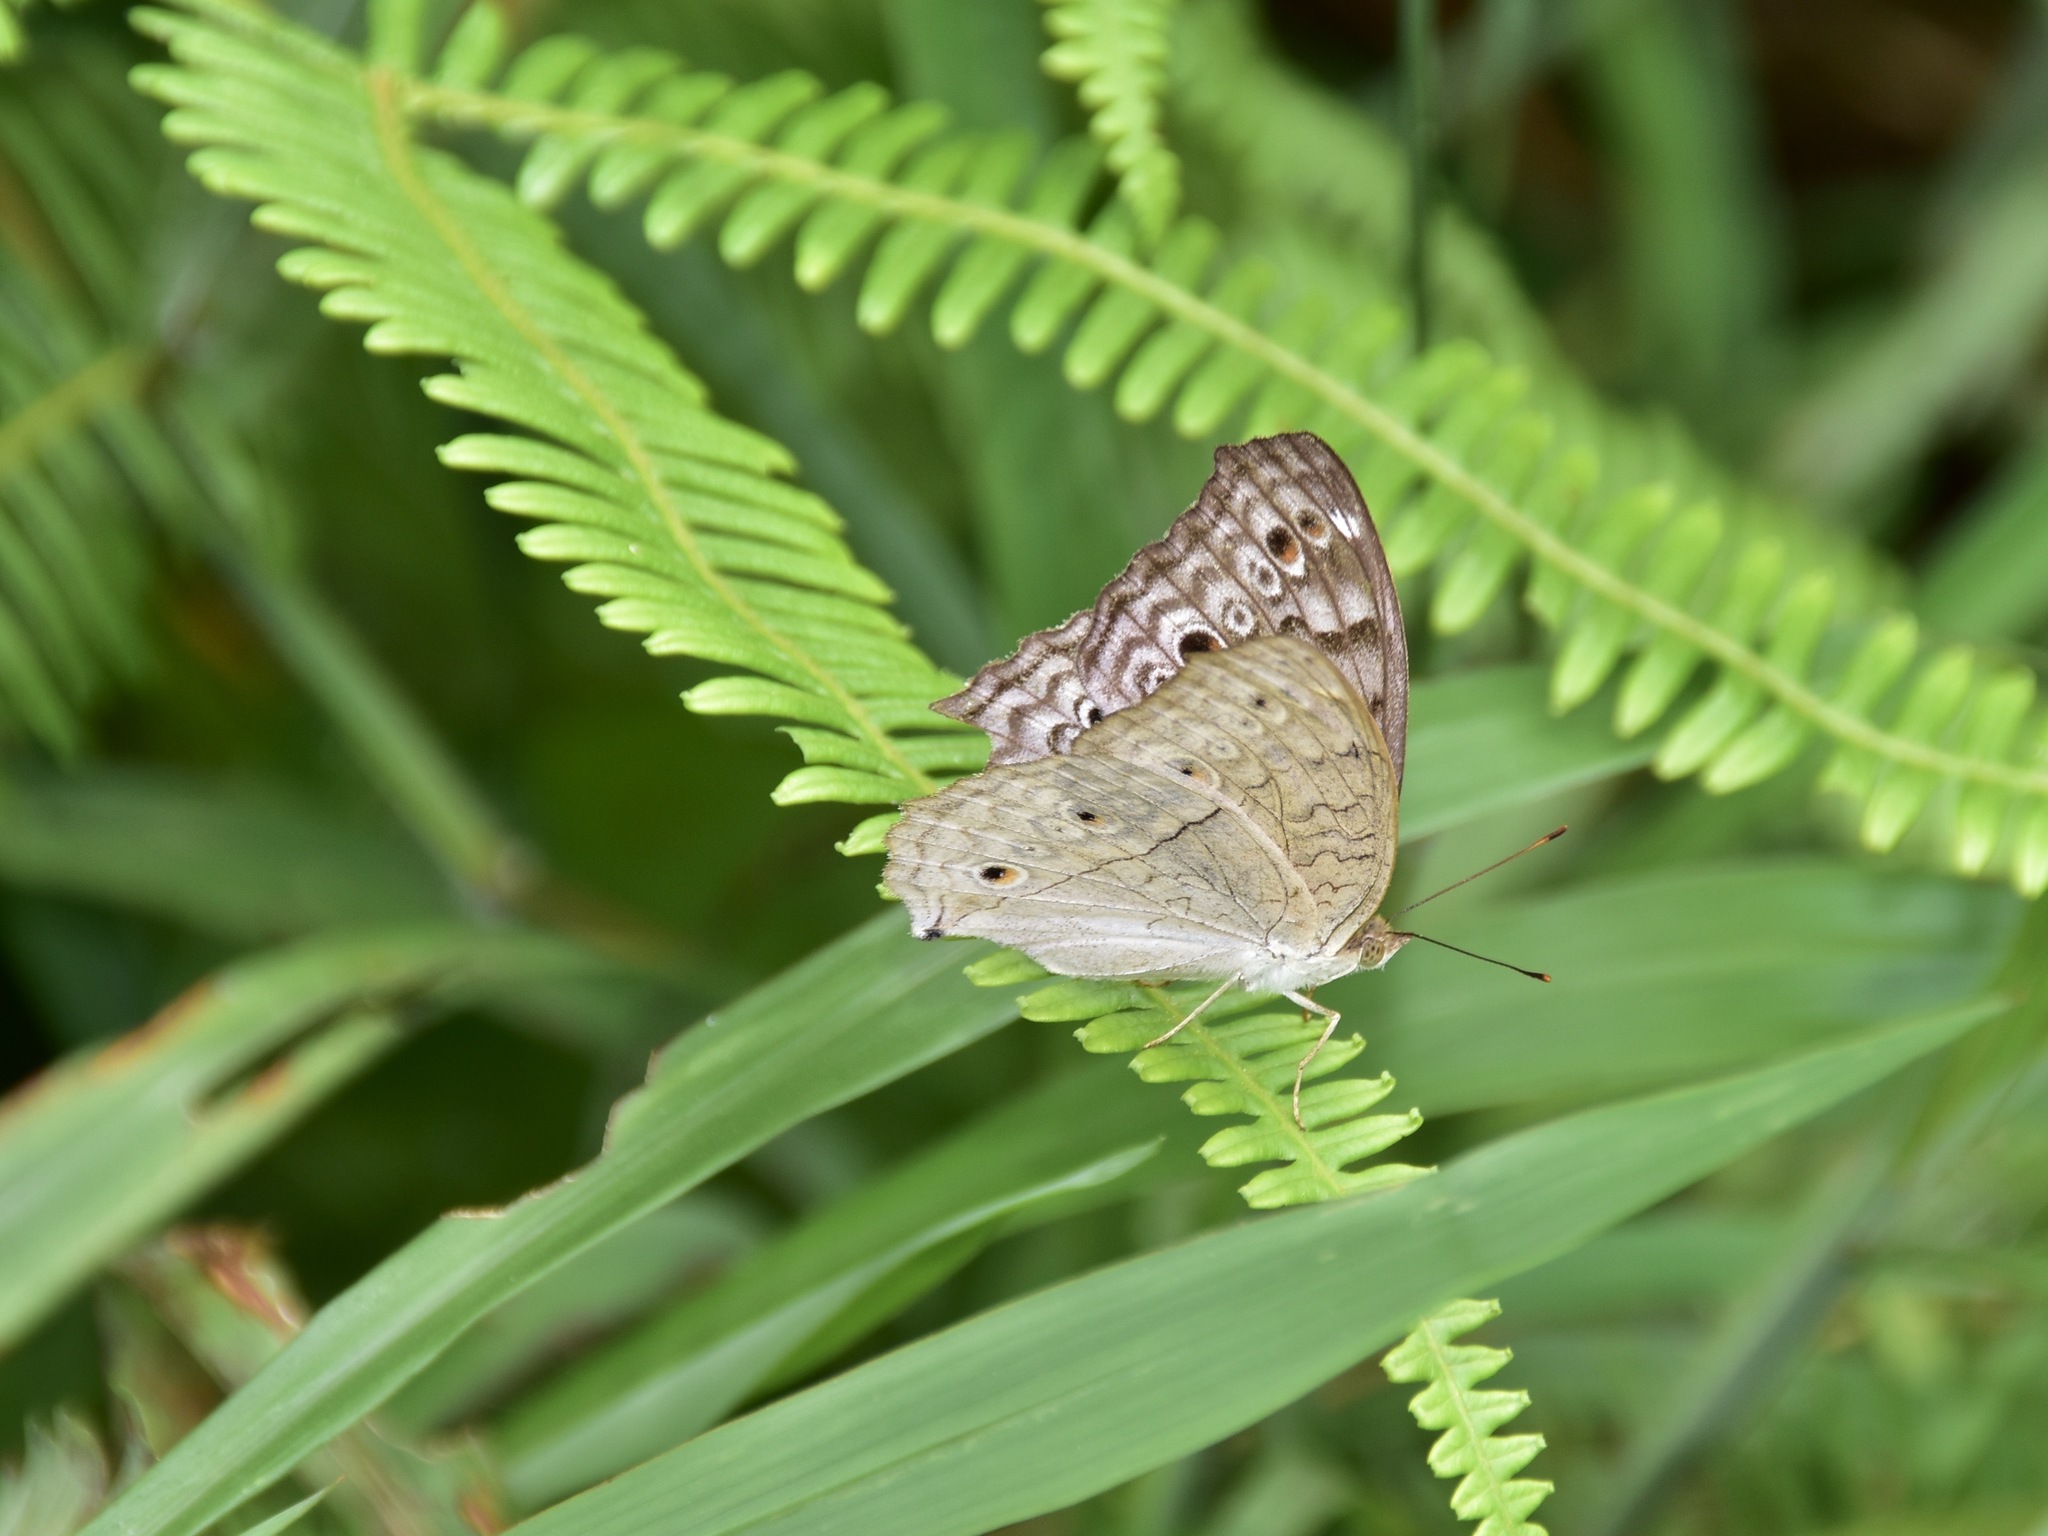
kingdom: Animalia
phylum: Arthropoda
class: Insecta
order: Lepidoptera
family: Nymphalidae
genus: Junonia
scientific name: Junonia atlites
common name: Grey pansy
